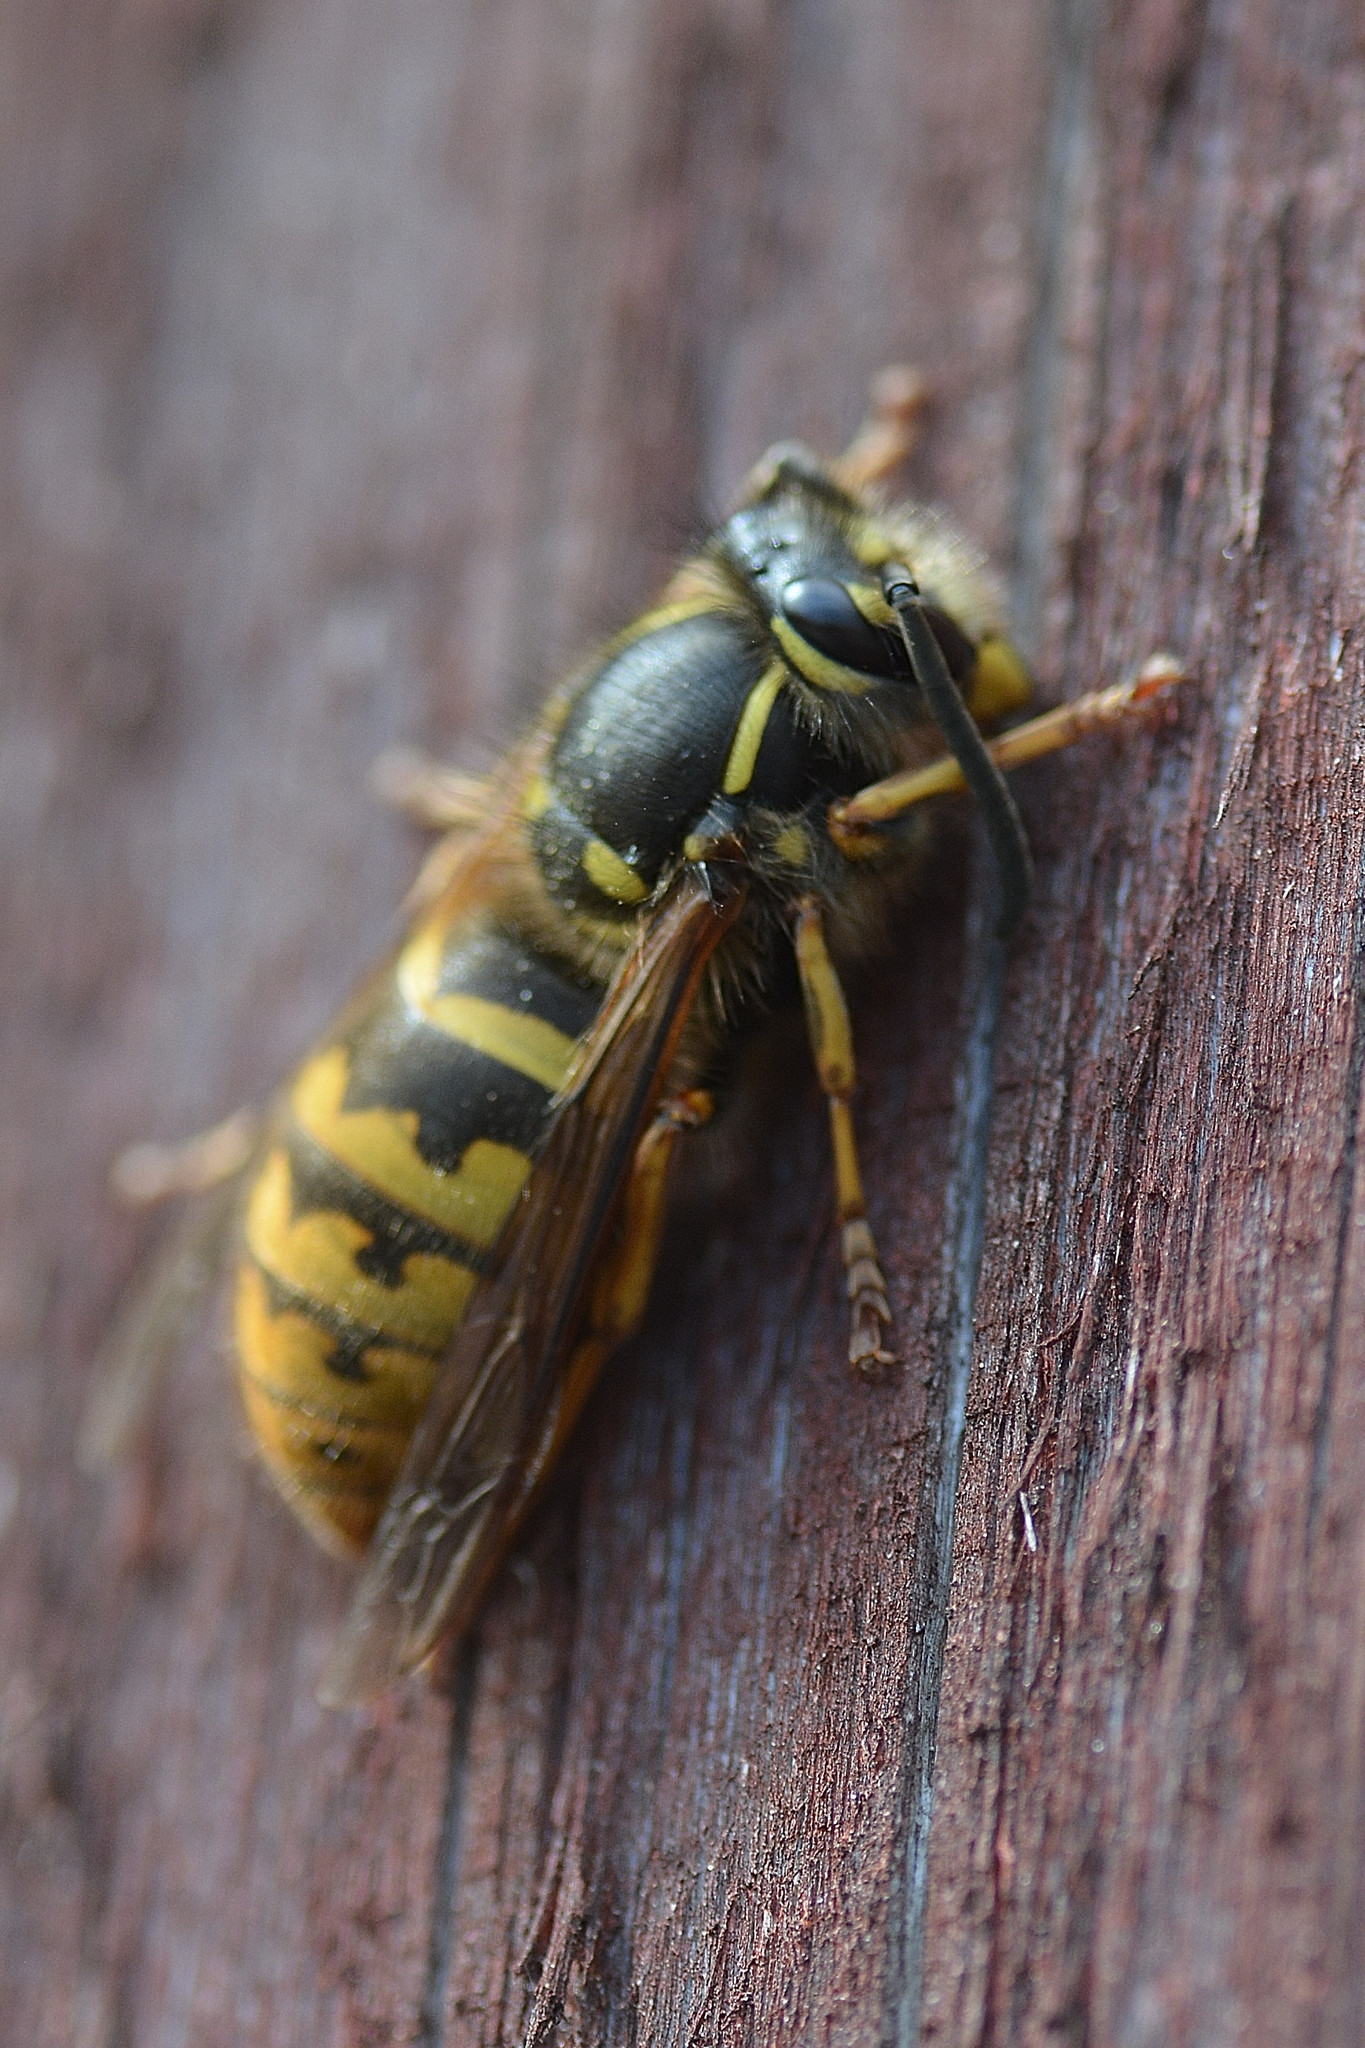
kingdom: Animalia
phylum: Arthropoda
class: Insecta
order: Hymenoptera
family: Vespidae
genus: Vespula
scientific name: Vespula vulgaris
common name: Common wasp
